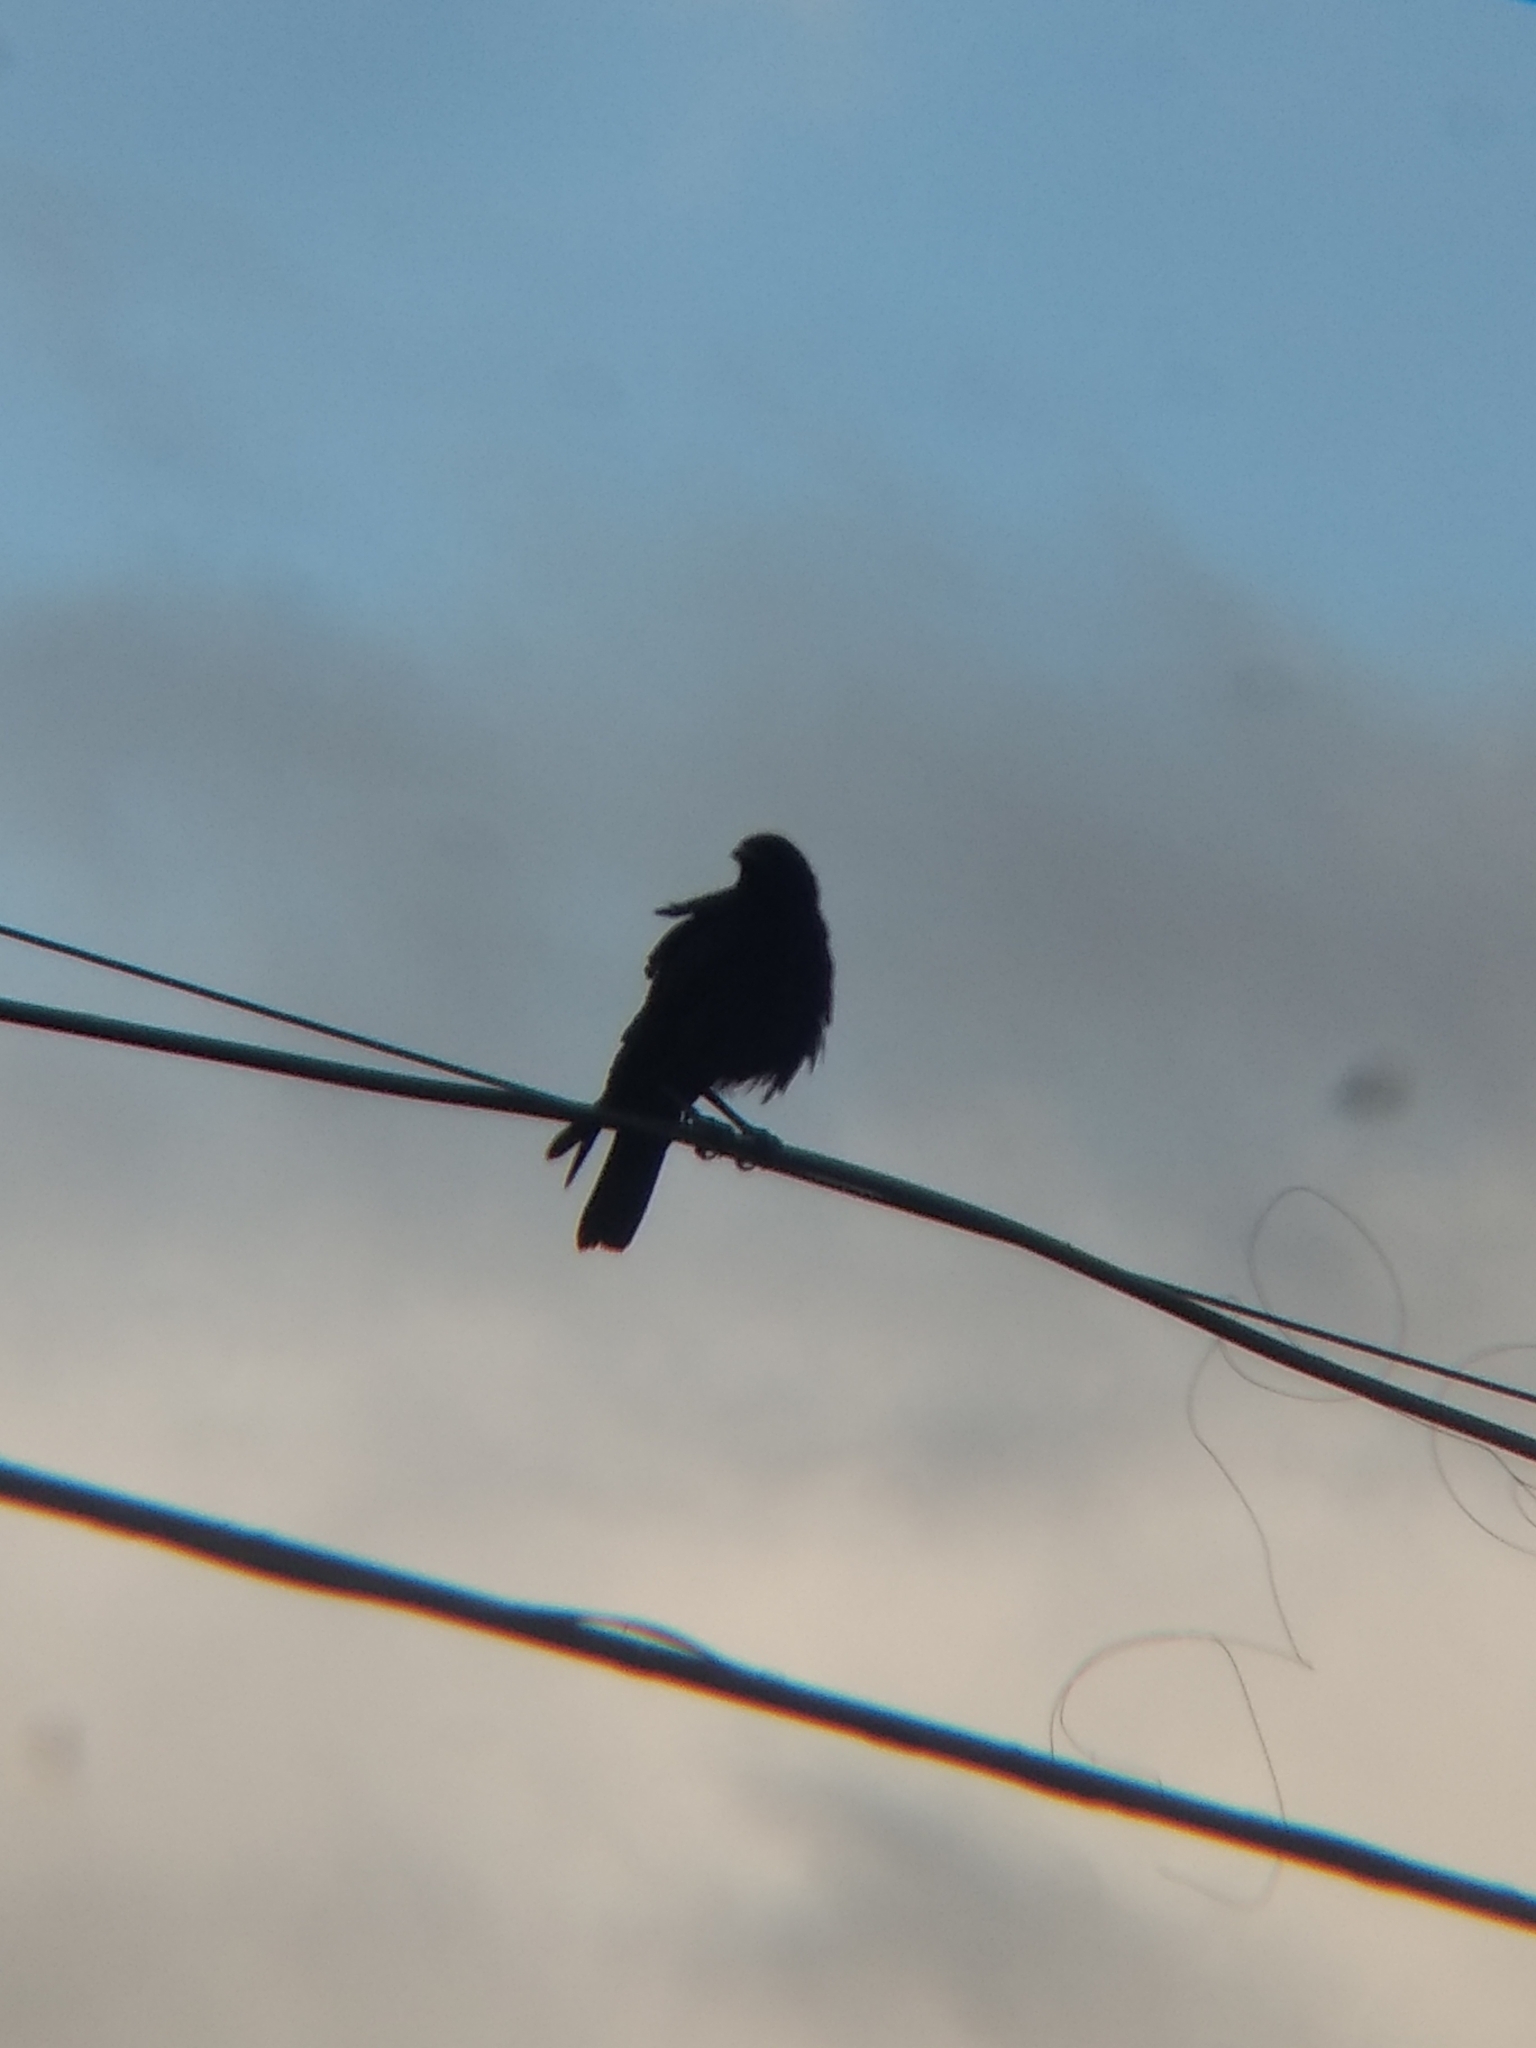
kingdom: Animalia
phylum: Chordata
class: Aves
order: Passeriformes
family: Corvidae
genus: Corvus
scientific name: Corvus brachyrhynchos
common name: American crow
